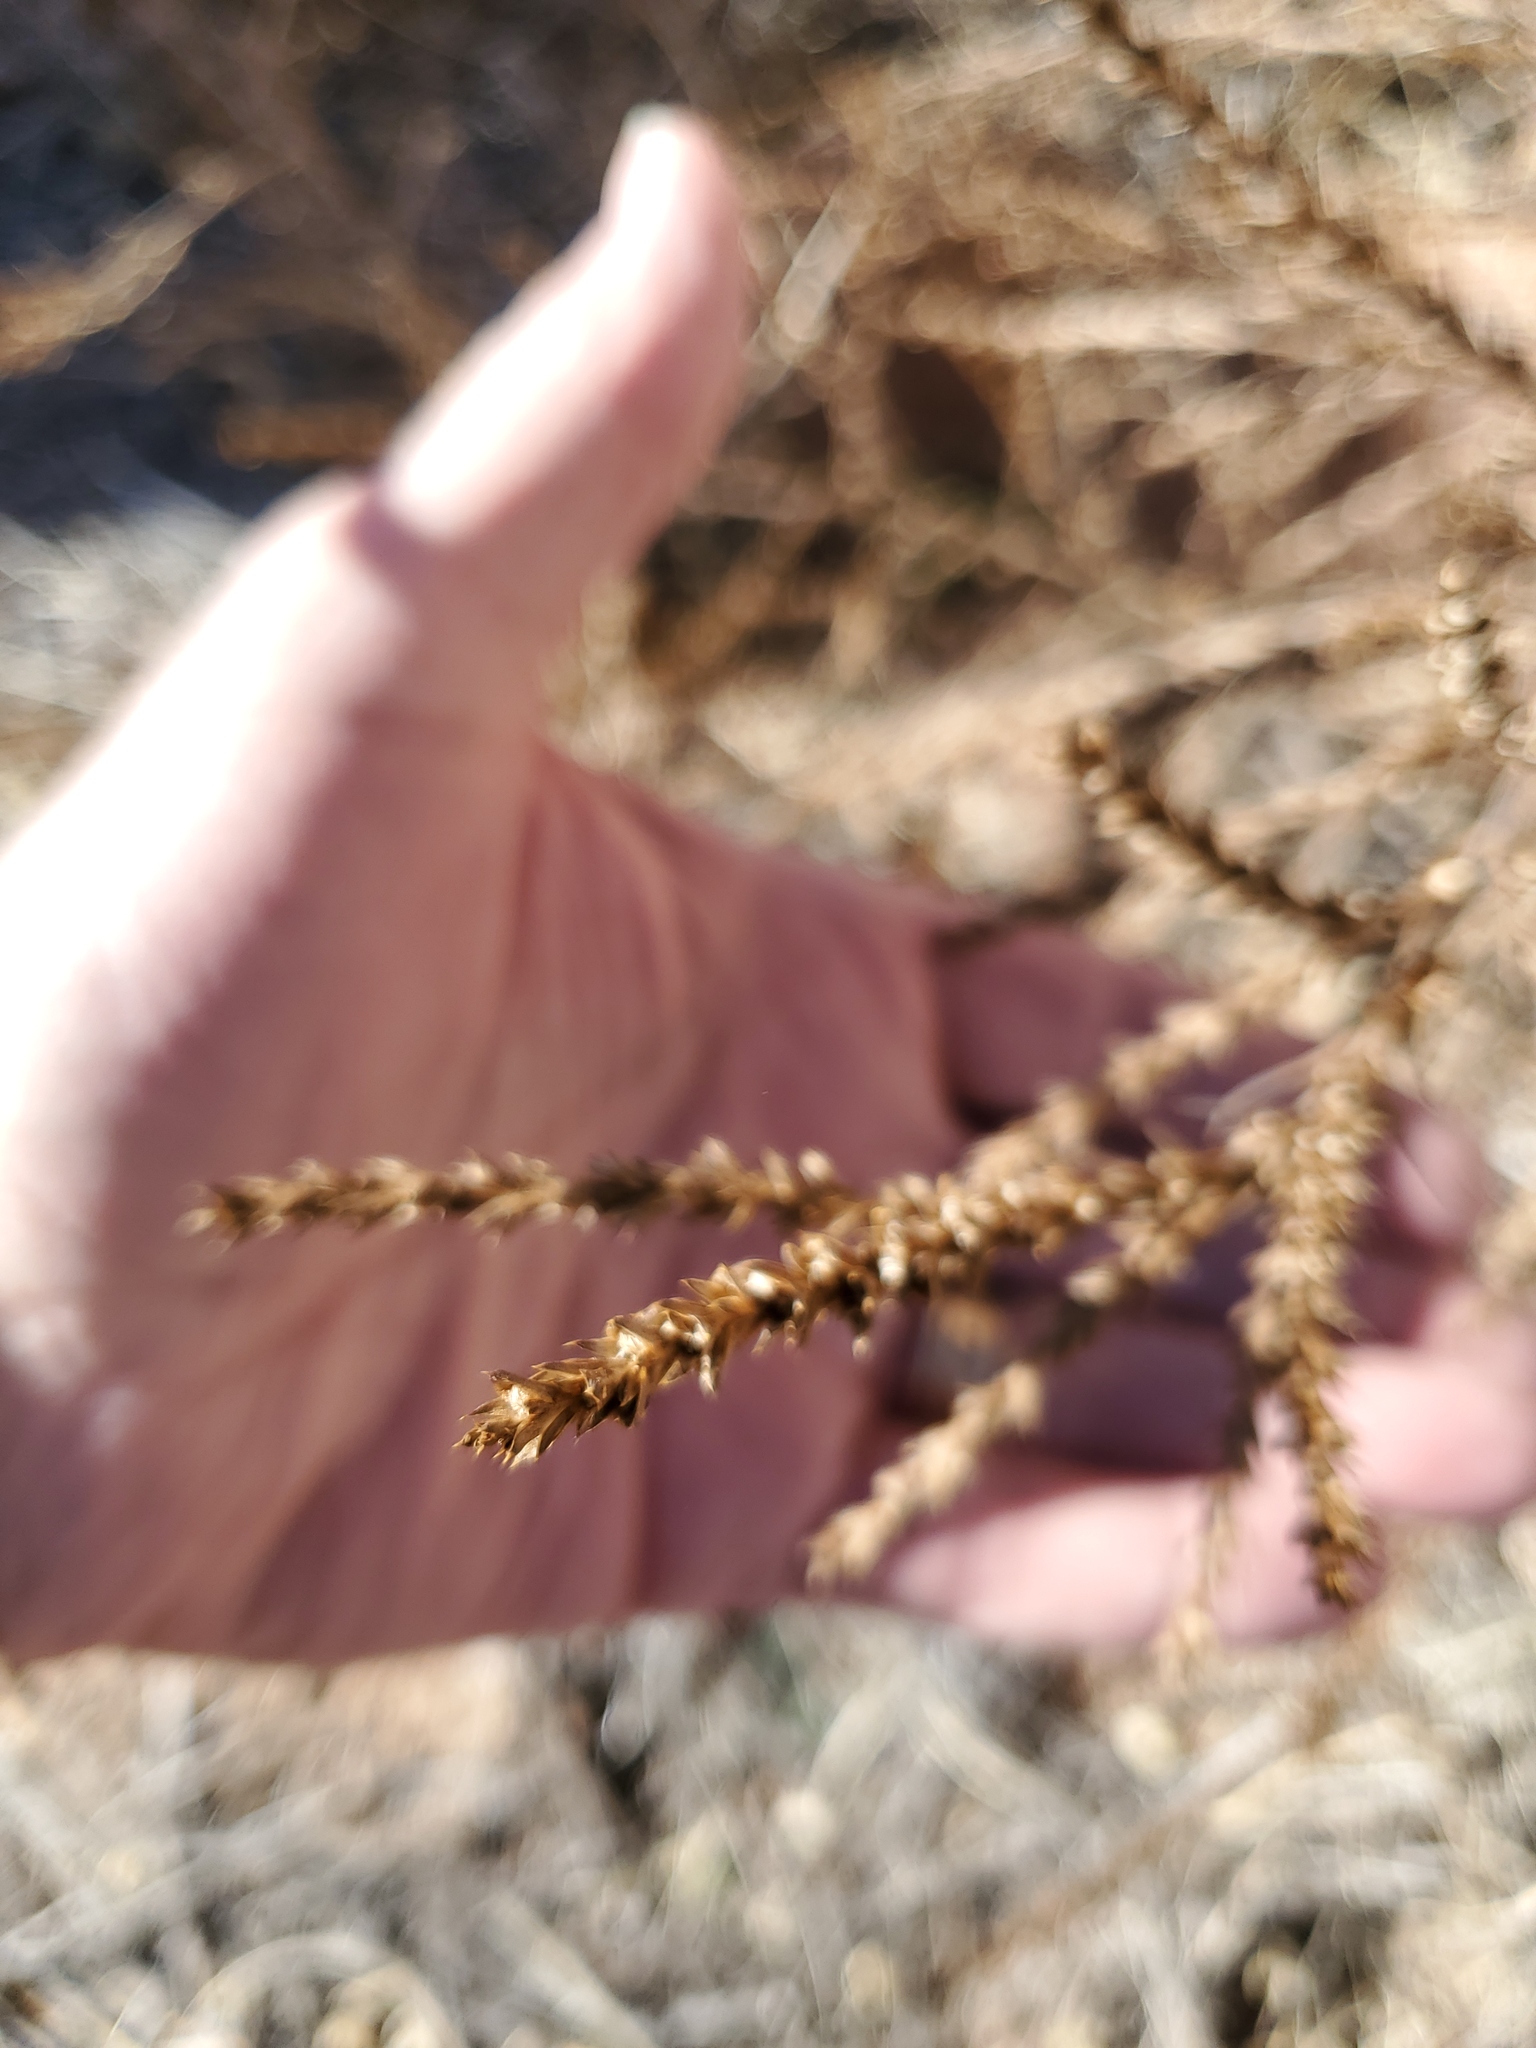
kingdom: Plantae
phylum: Tracheophyta
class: Magnoliopsida
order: Caryophyllales
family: Amaranthaceae
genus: Salsola
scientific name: Salsola tragus
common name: Prickly russian thistle
